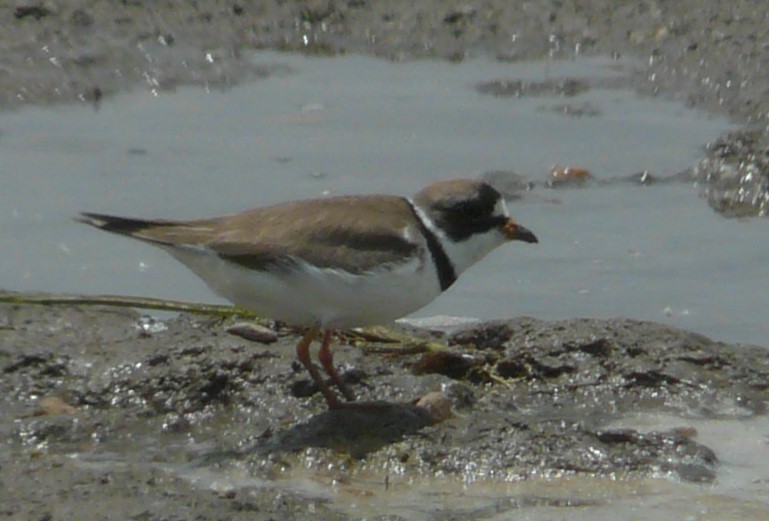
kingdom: Animalia
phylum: Chordata
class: Aves
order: Charadriiformes
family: Charadriidae
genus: Charadrius
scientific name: Charadrius semipalmatus
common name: Semipalmated plover
